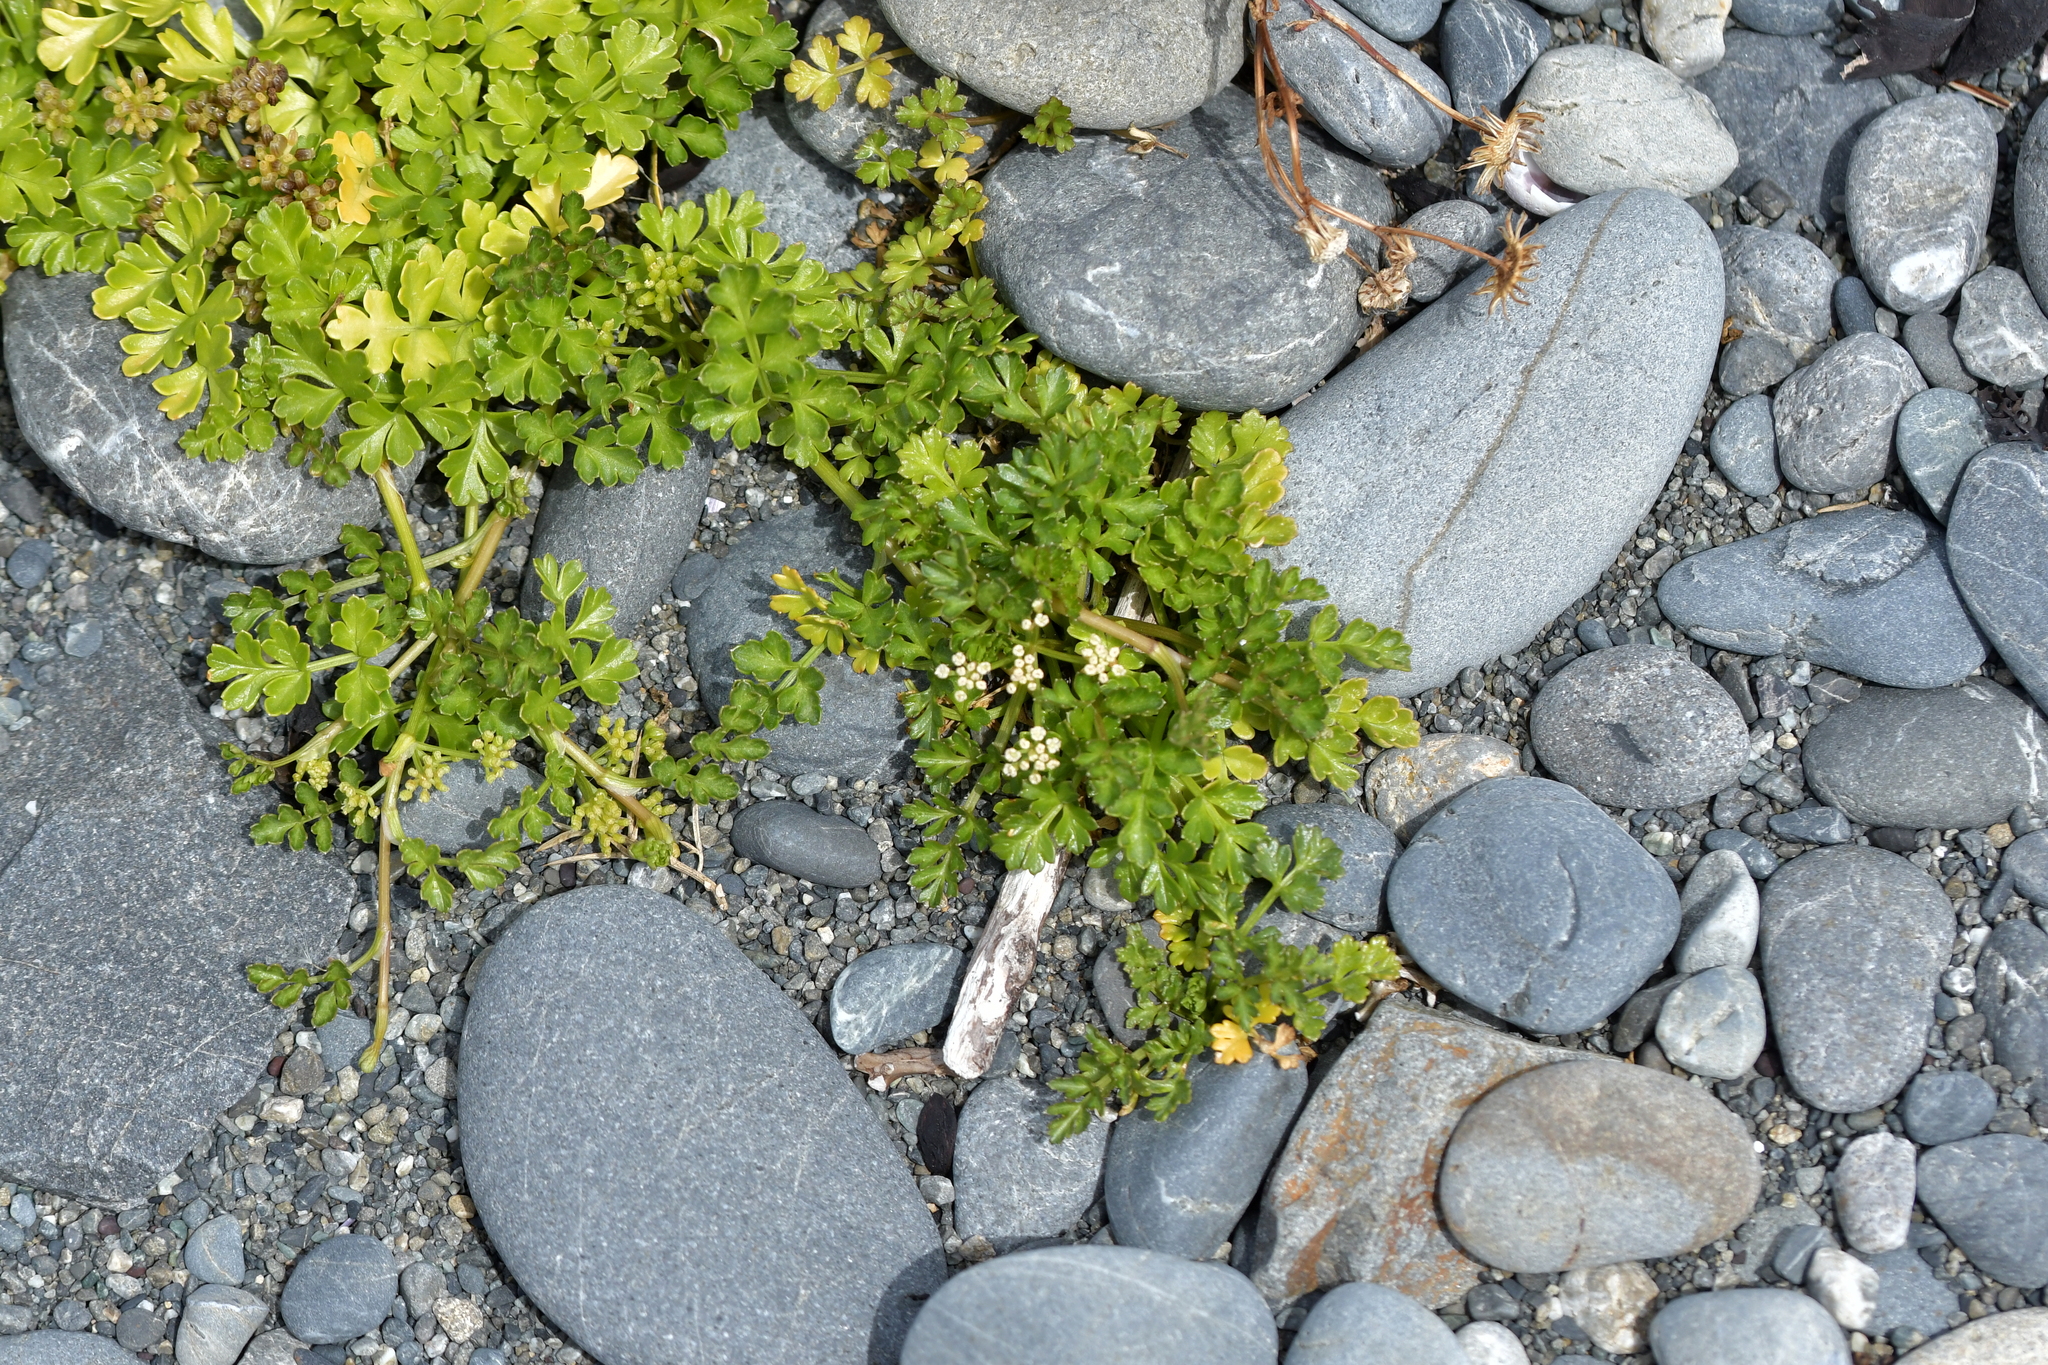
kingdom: Plantae
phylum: Tracheophyta
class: Magnoliopsida
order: Apiales
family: Apiaceae
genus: Apium
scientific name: Apium prostratum
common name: Prostrate marshwort
